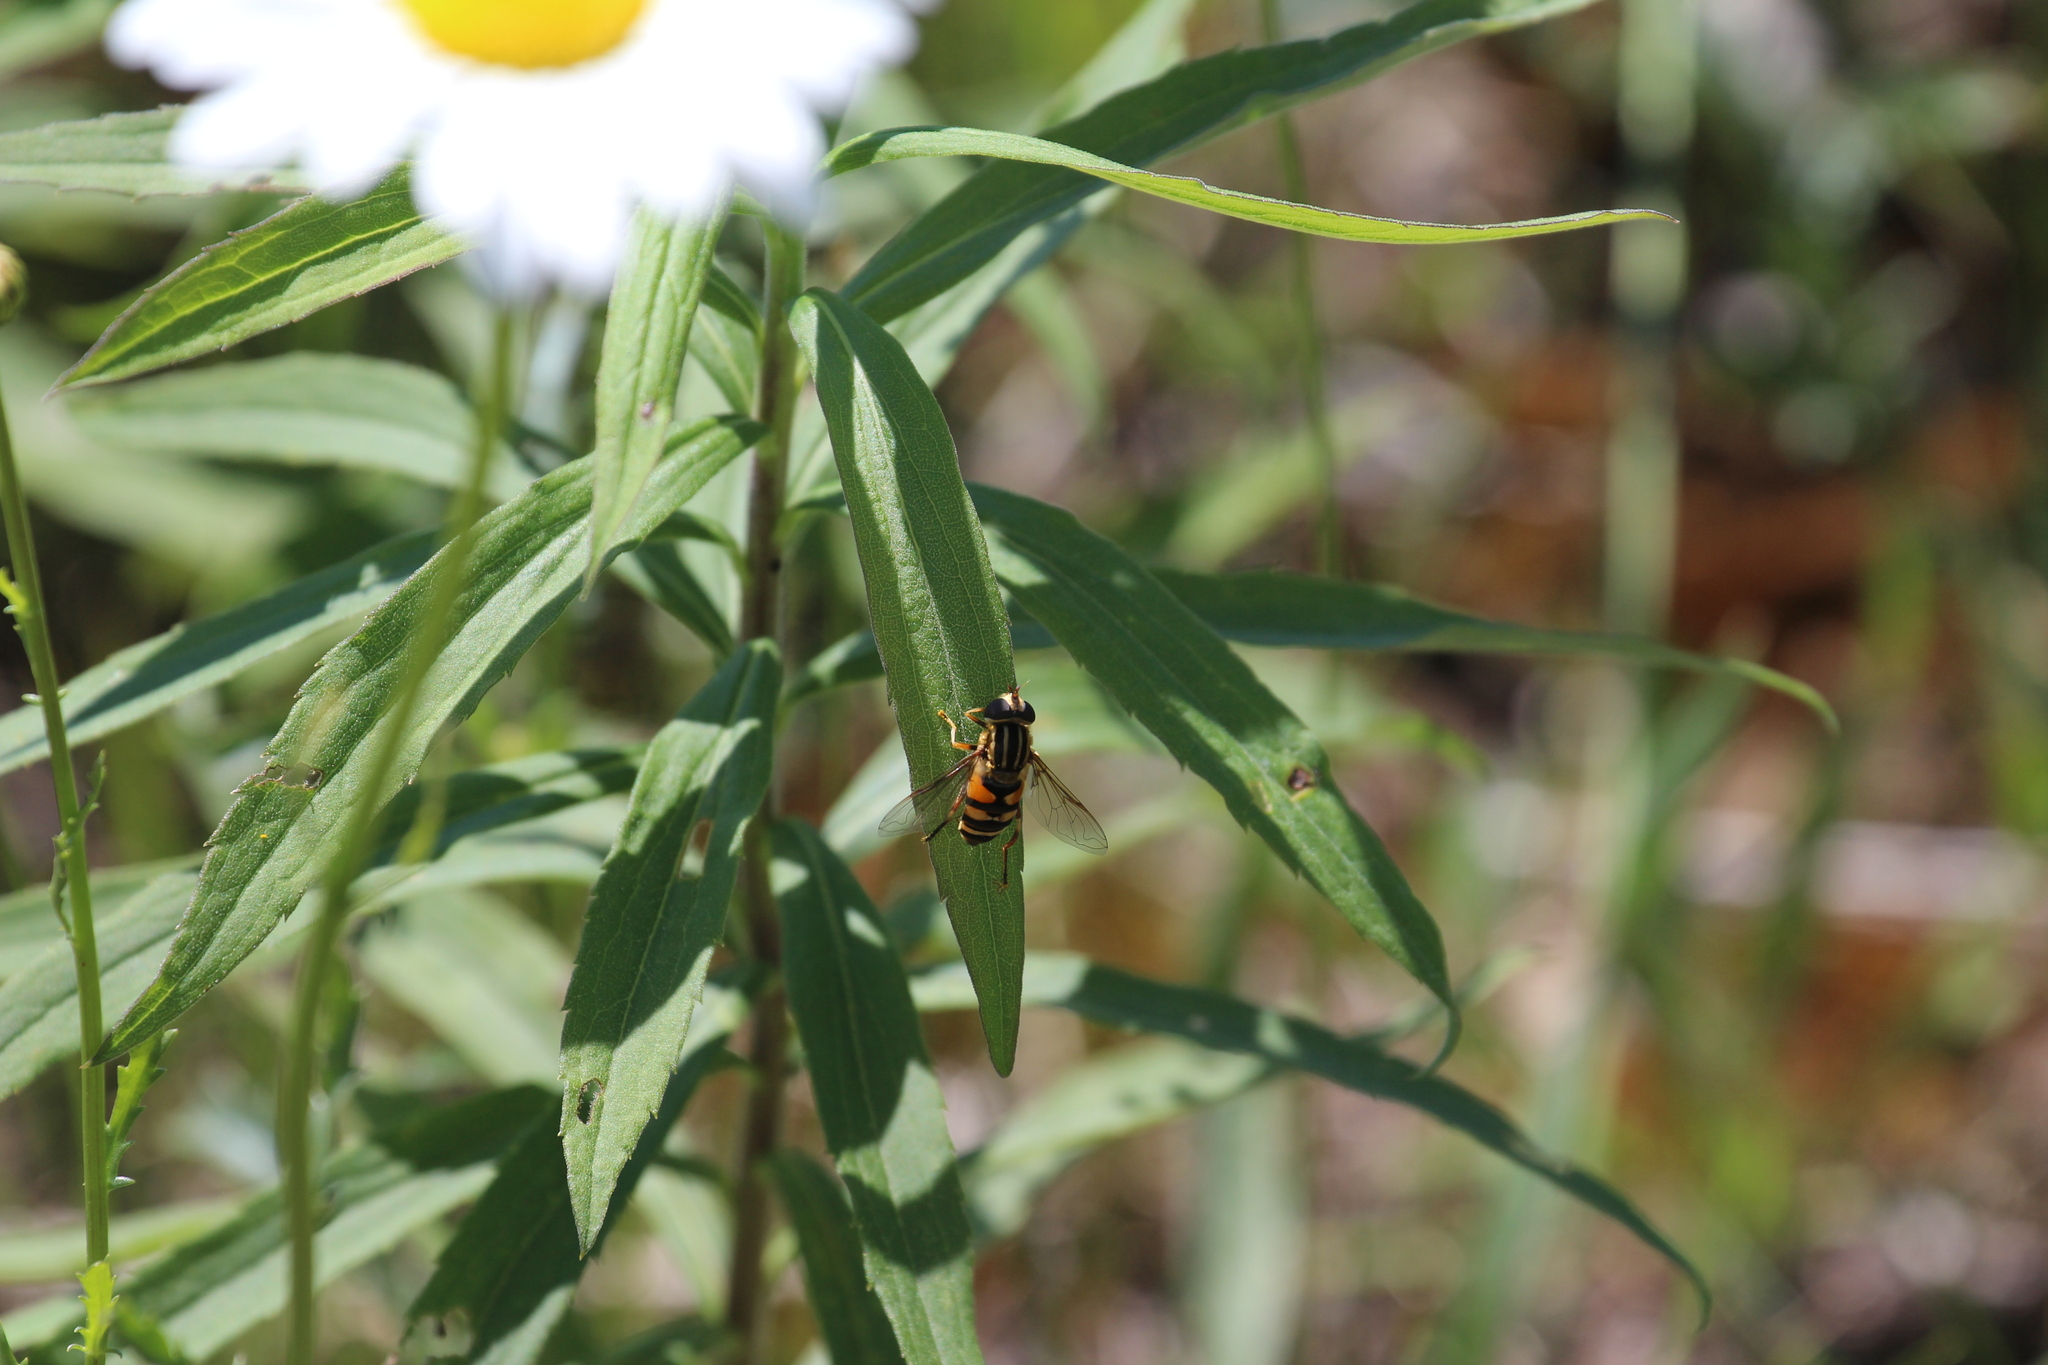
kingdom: Animalia
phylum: Arthropoda
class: Insecta
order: Diptera
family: Syrphidae
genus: Helophilus
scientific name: Helophilus fasciatus
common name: Narrow-headed marsh fly
